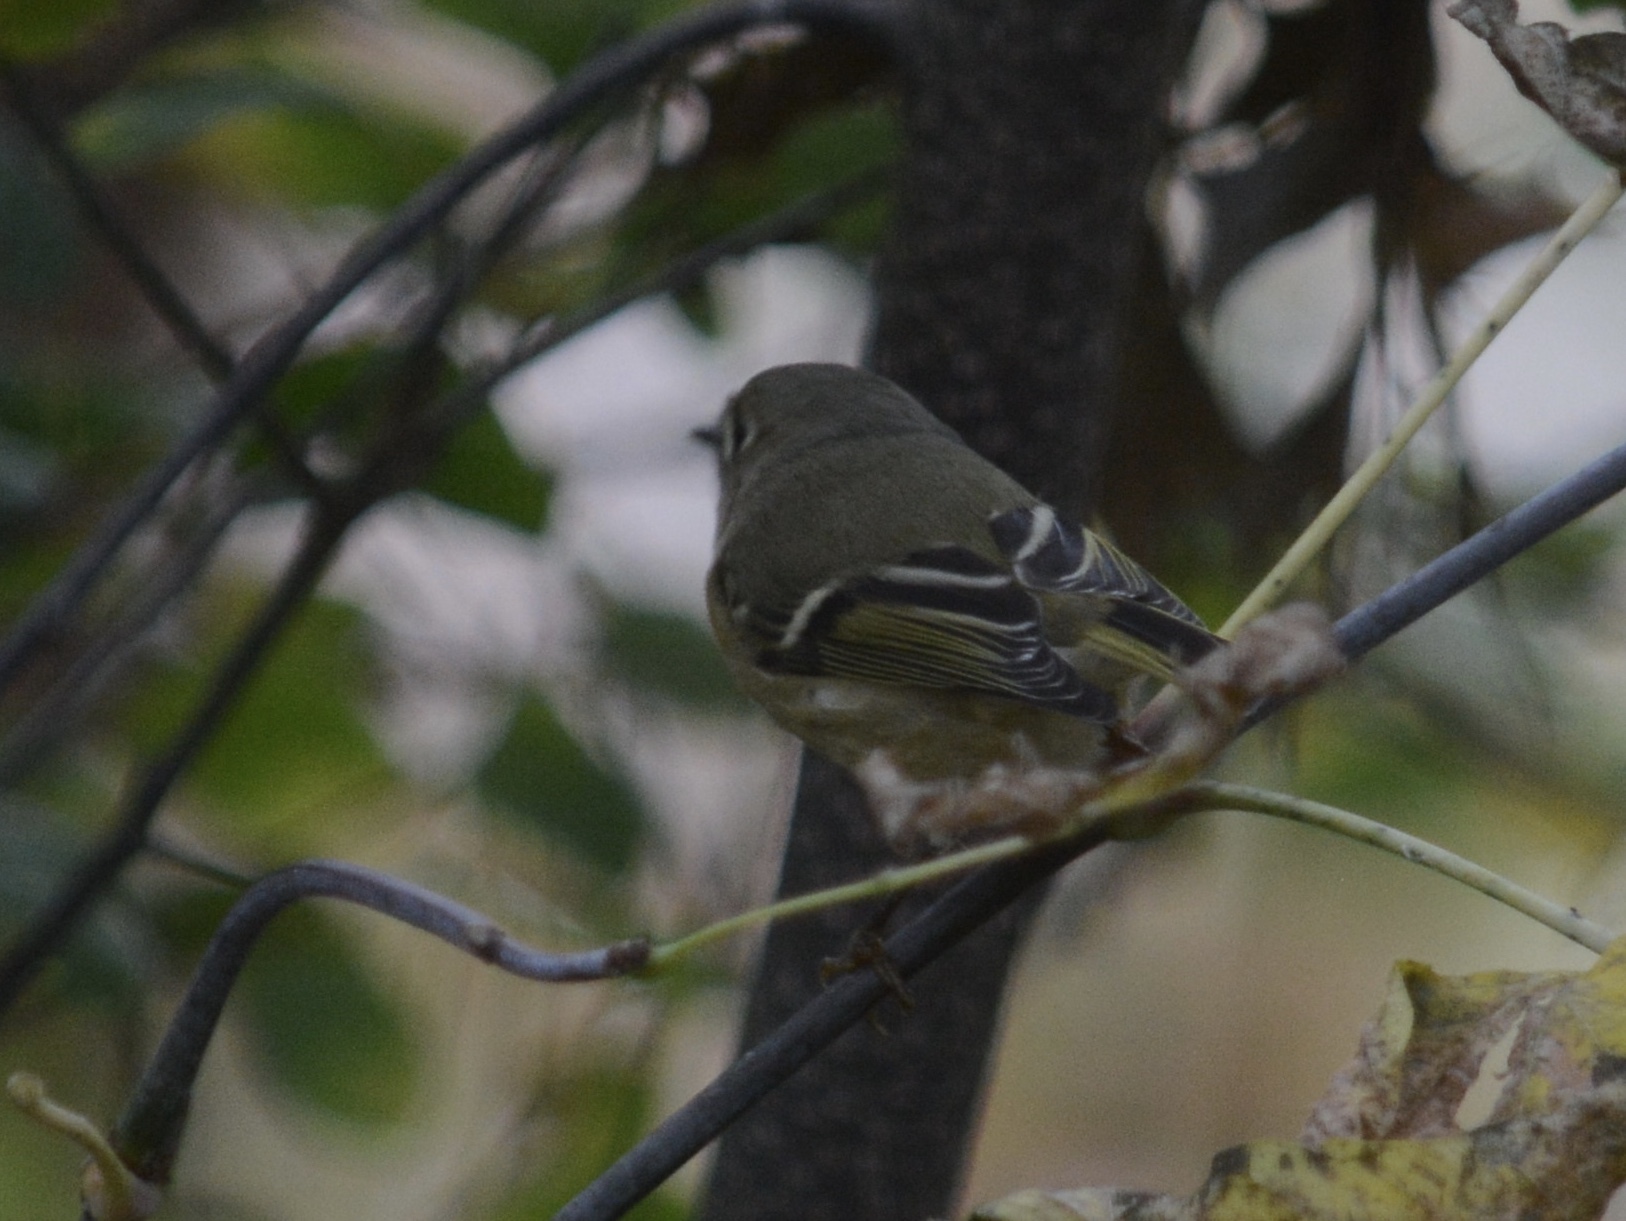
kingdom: Animalia
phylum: Chordata
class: Aves
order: Passeriformes
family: Regulidae
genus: Regulus
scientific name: Regulus calendula
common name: Ruby-crowned kinglet
